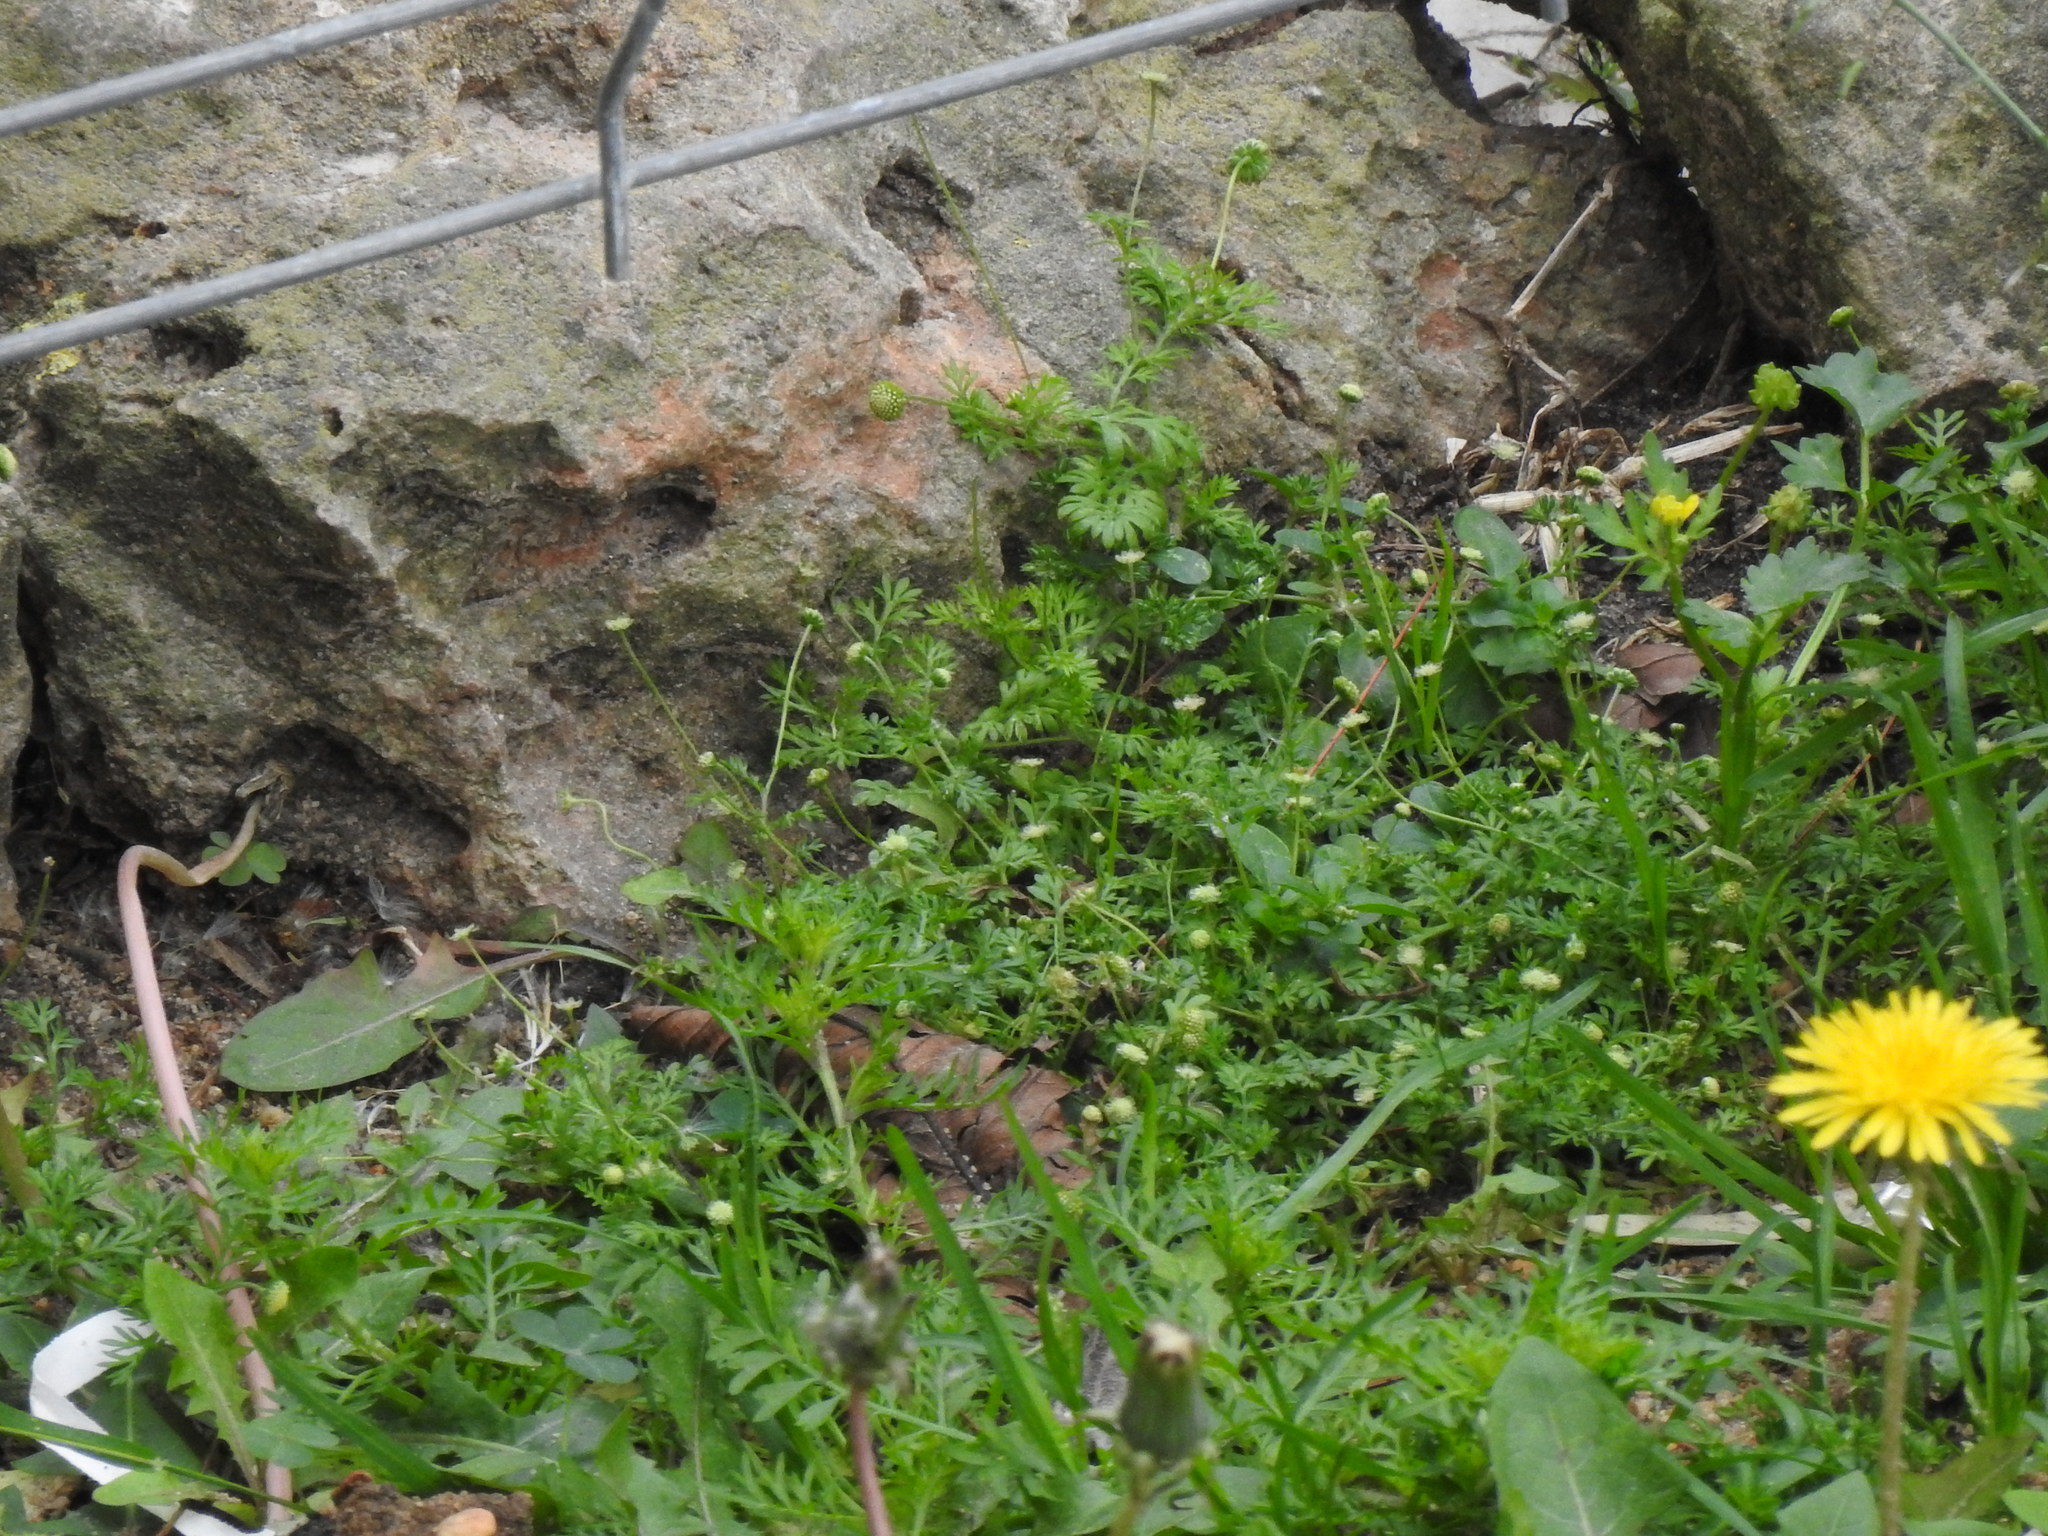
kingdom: Plantae
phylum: Tracheophyta
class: Magnoliopsida
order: Asterales
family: Asteraceae
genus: Cotula
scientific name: Cotula australis
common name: Australian waterbuttons
